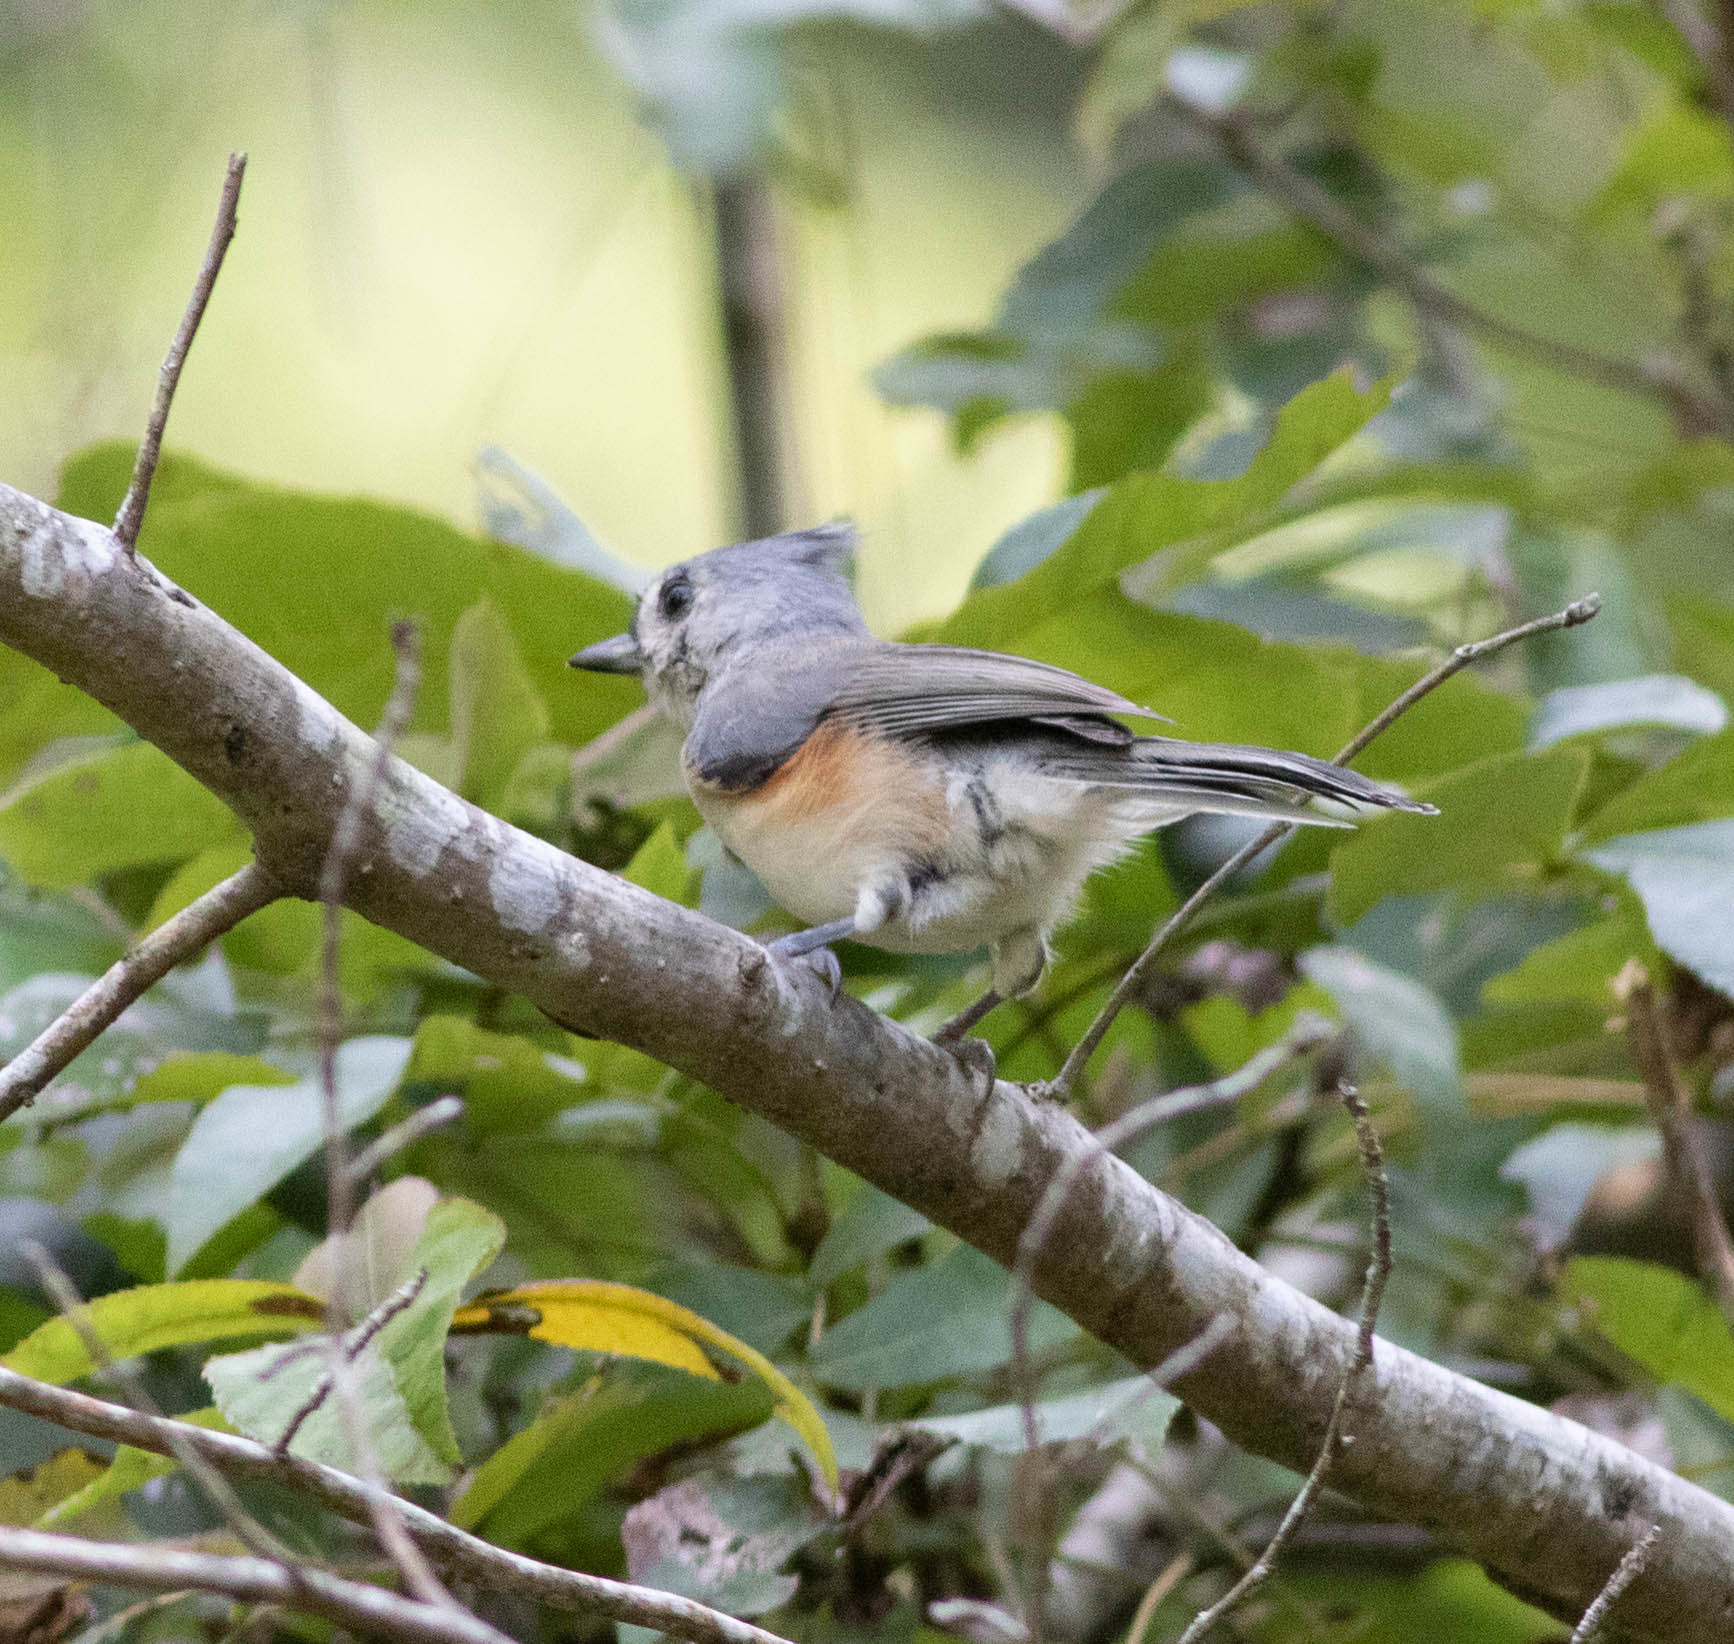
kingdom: Animalia
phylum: Chordata
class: Aves
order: Passeriformes
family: Paridae
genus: Baeolophus
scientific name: Baeolophus bicolor
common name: Tufted titmouse
